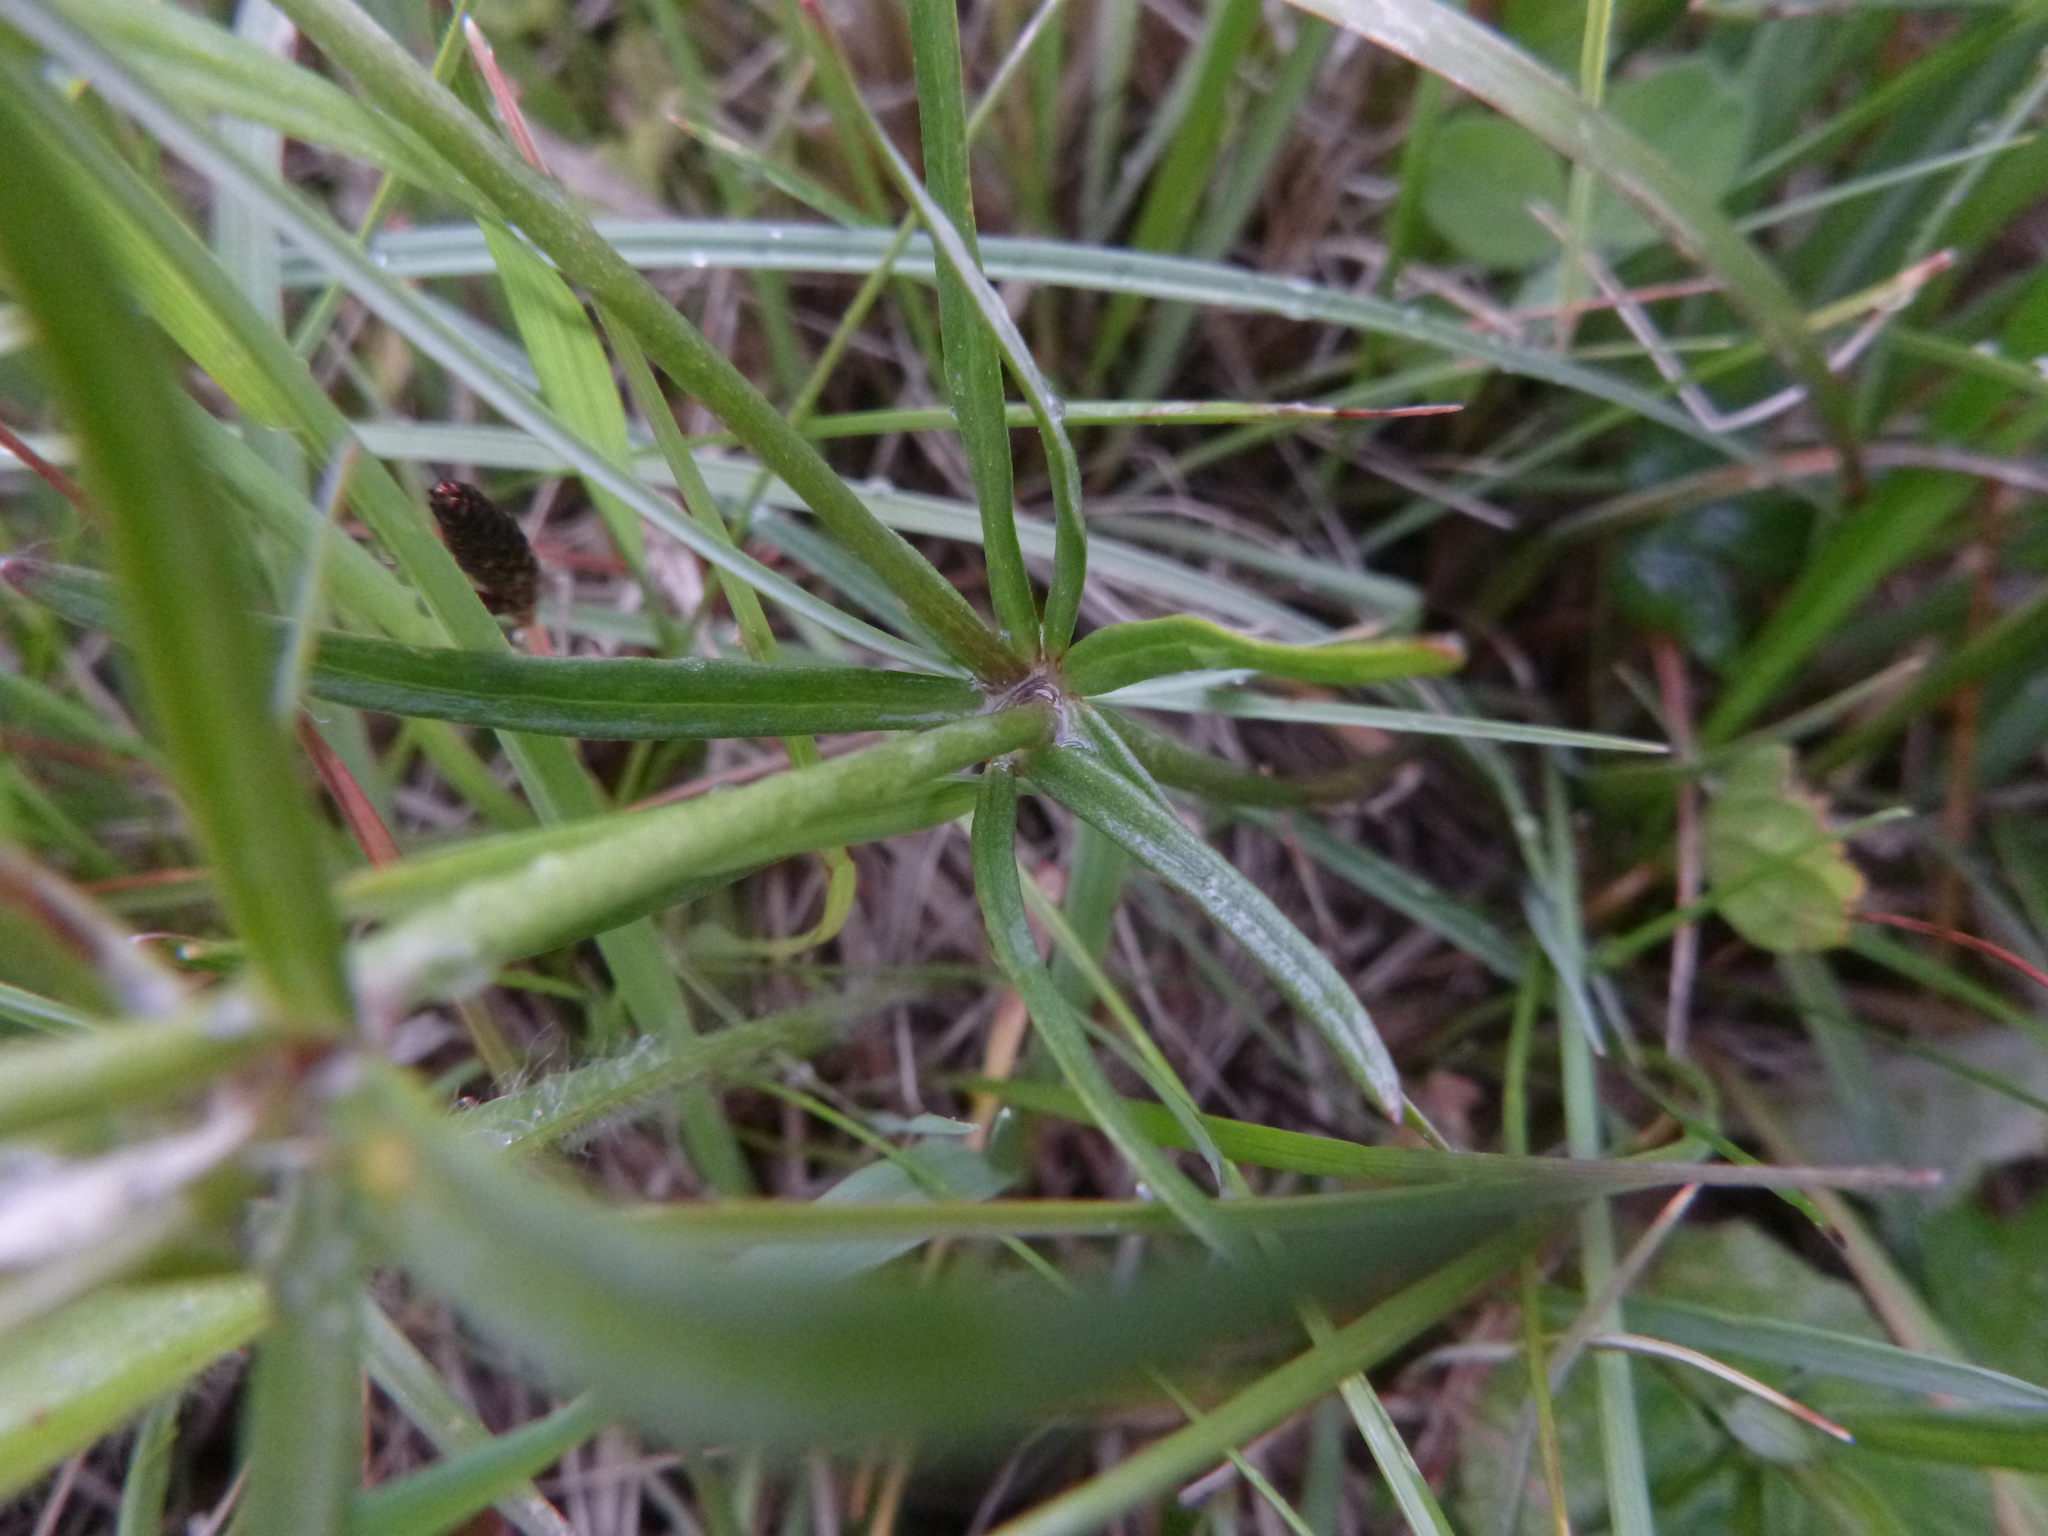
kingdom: Plantae
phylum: Tracheophyta
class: Magnoliopsida
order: Ranunculales
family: Ranunculaceae
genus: Ranunculus
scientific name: Ranunculus auricomus
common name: Goldilocks buttercup
